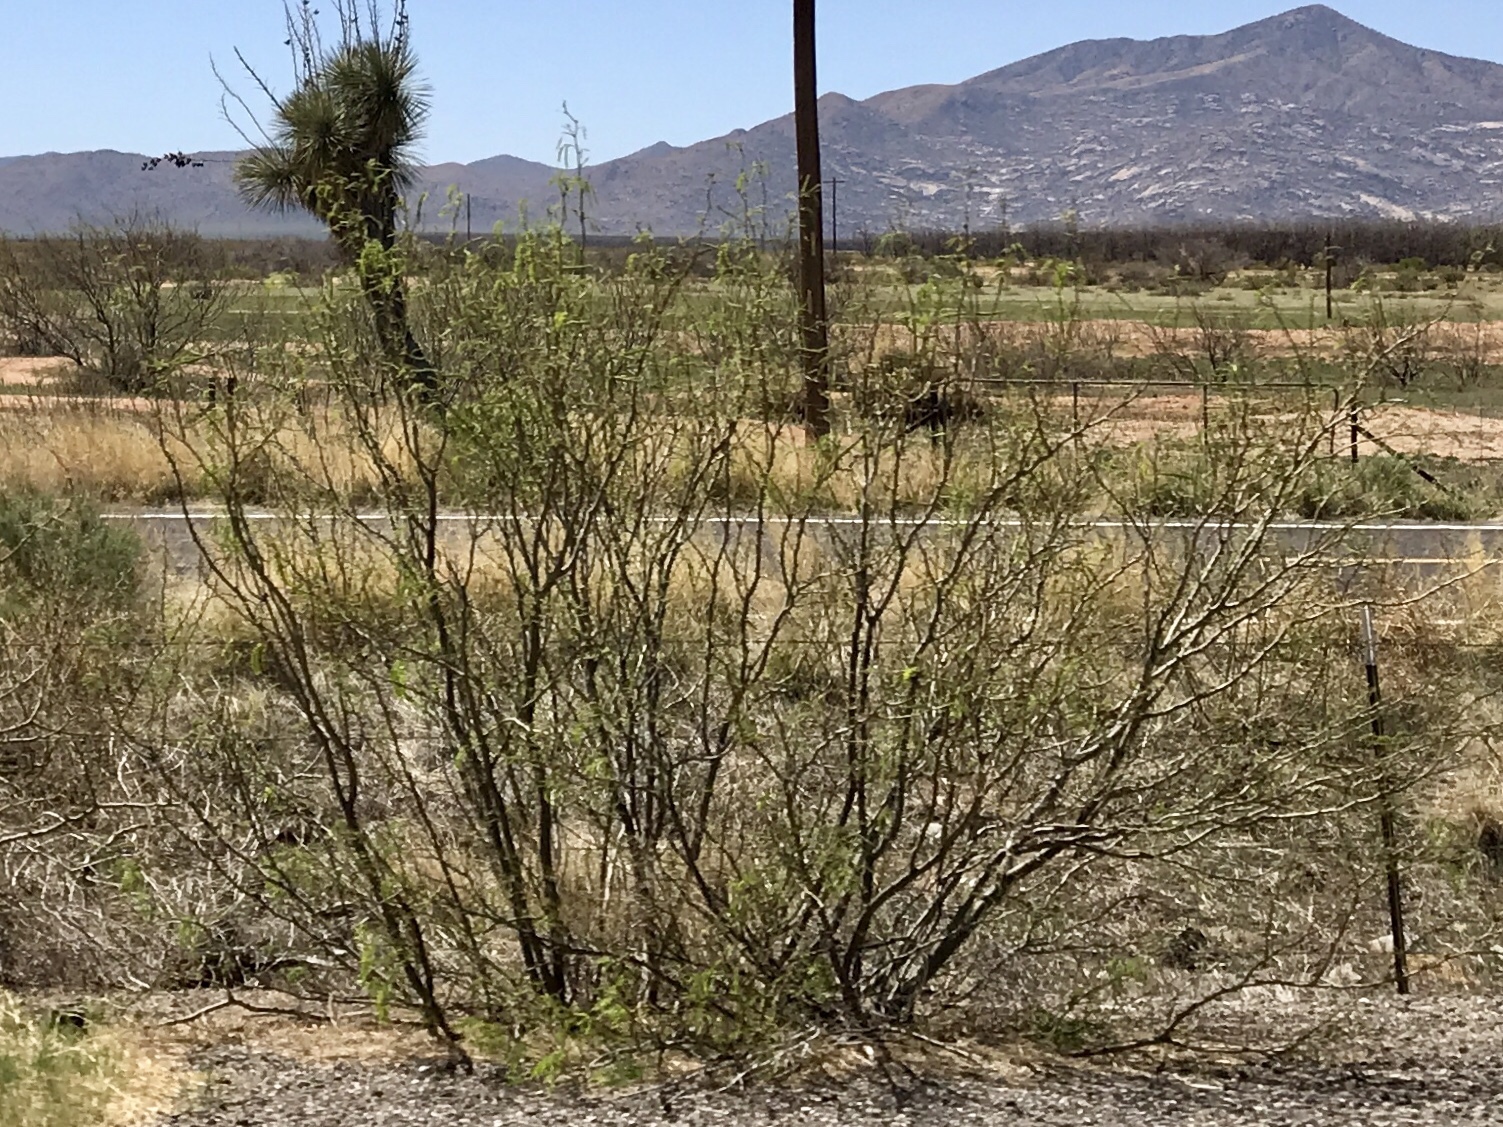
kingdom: Plantae
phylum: Tracheophyta
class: Magnoliopsida
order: Fabales
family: Fabaceae
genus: Prosopis
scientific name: Prosopis glandulosa
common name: Honey mesquite
